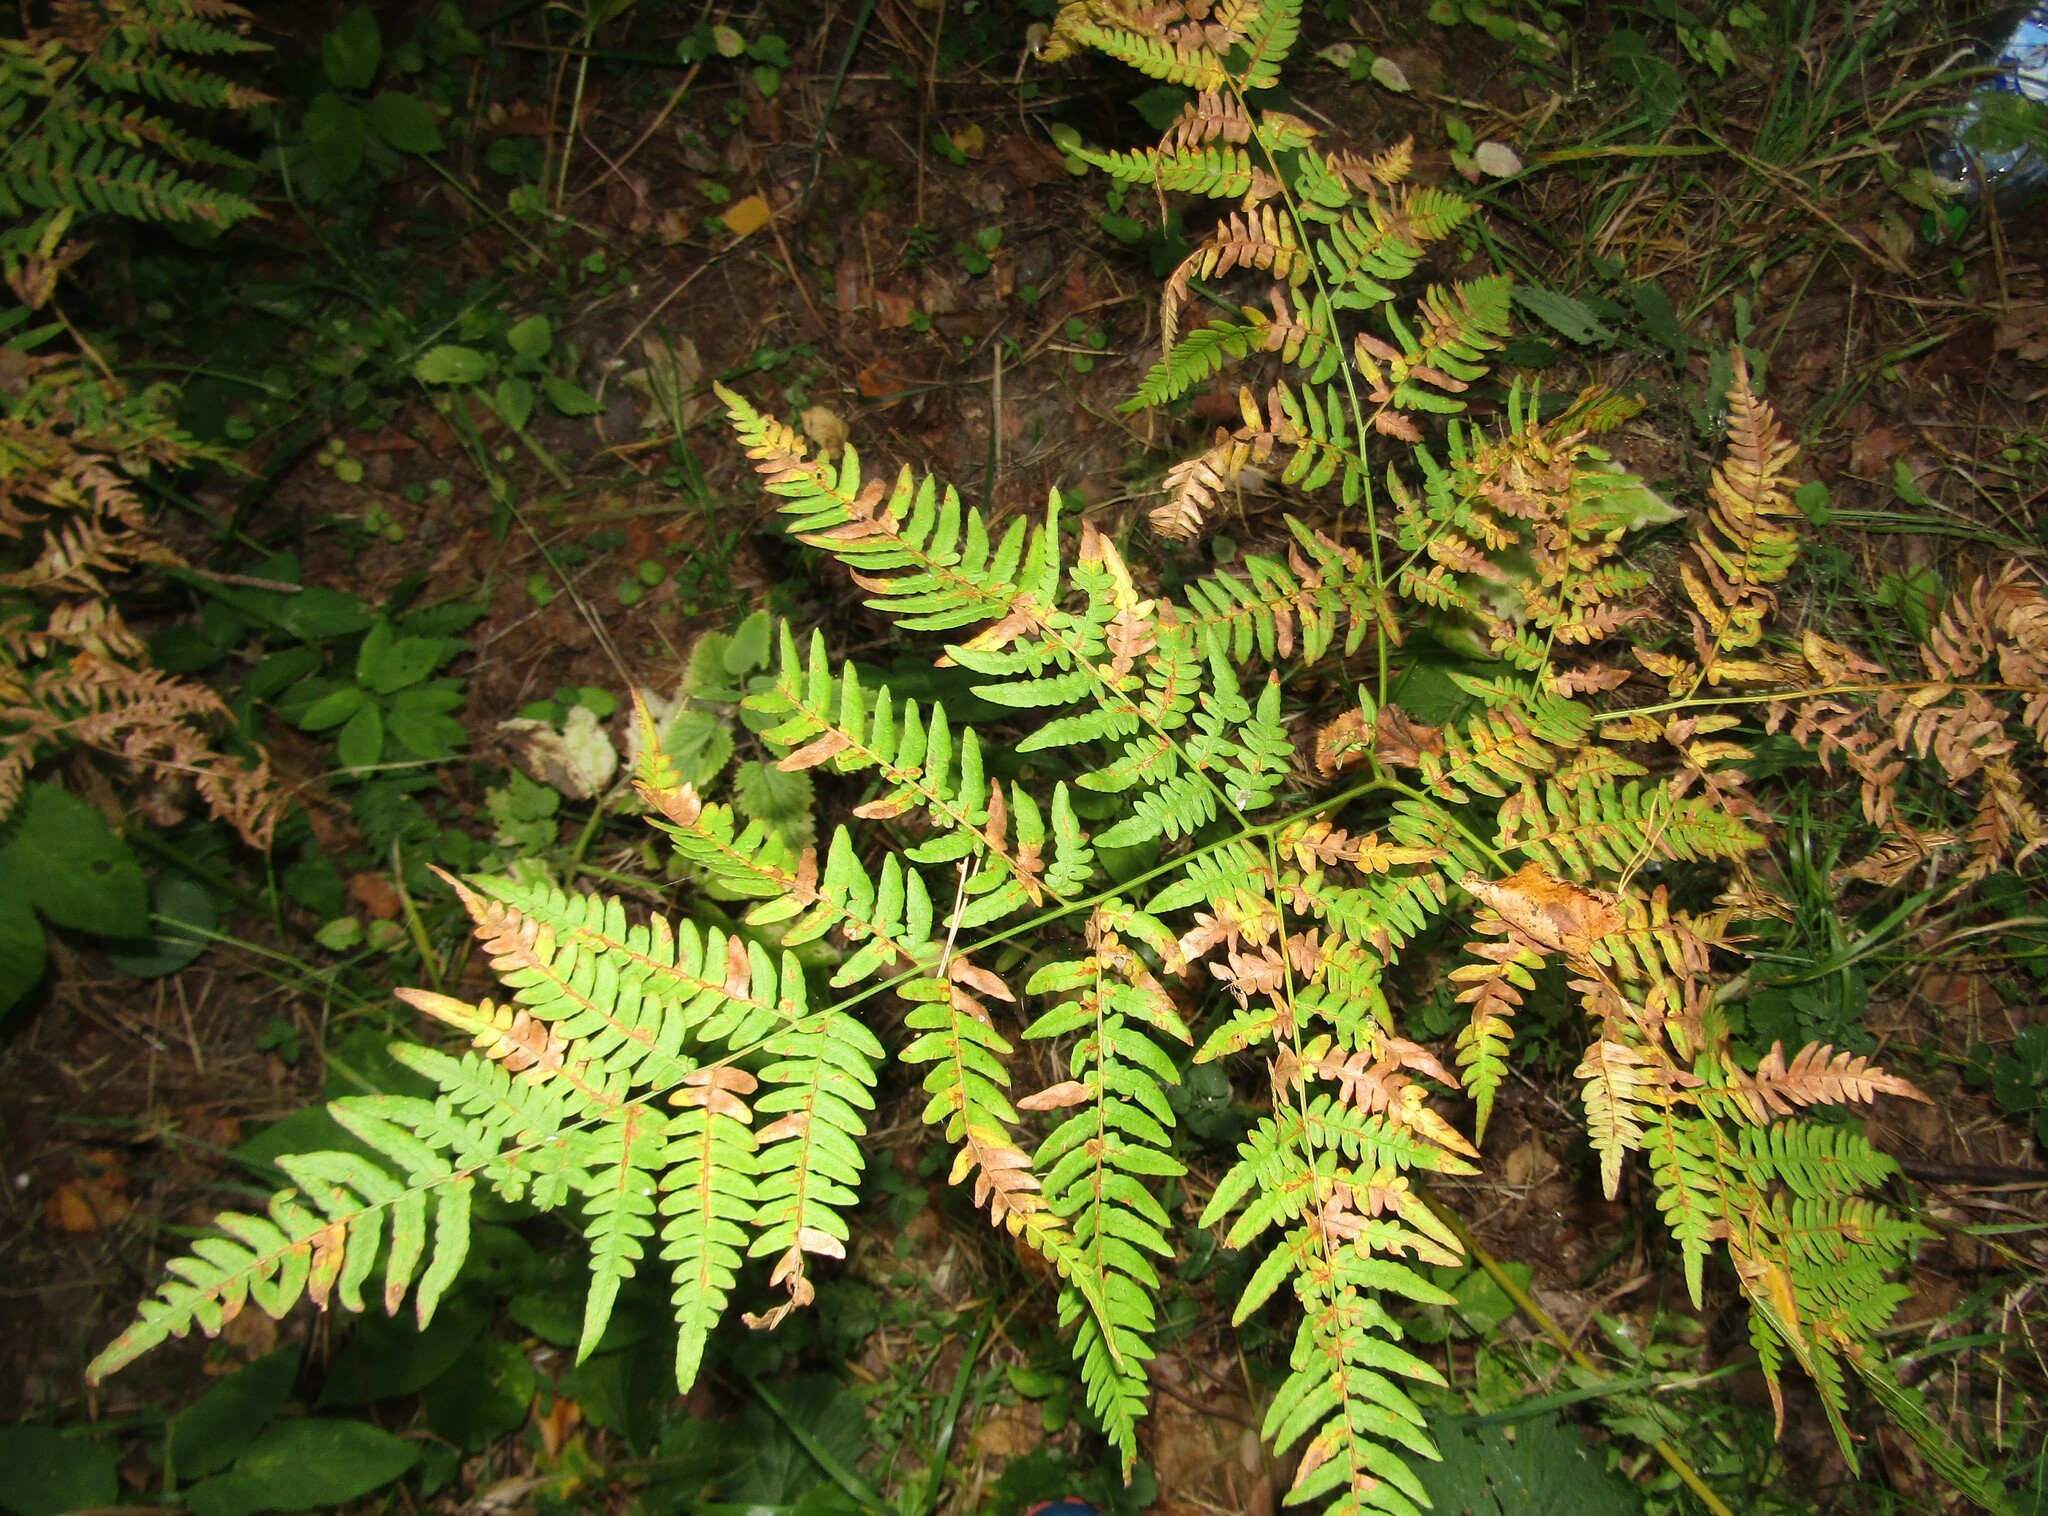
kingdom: Plantae
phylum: Tracheophyta
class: Polypodiopsida
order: Polypodiales
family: Dennstaedtiaceae
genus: Pteridium
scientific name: Pteridium aquilinum
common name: Bracken
